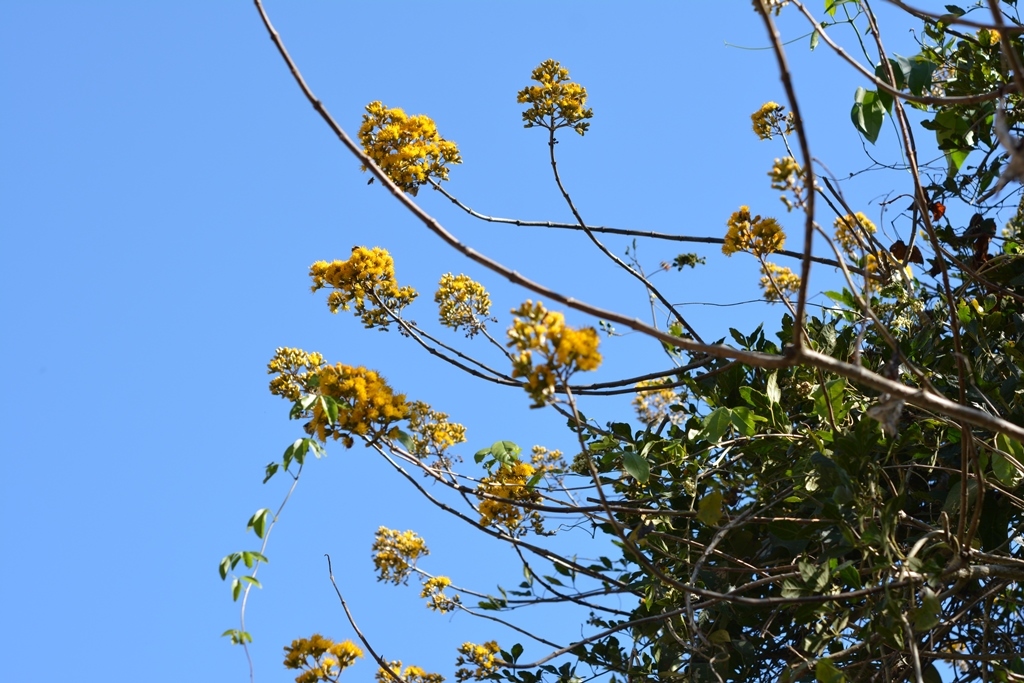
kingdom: Plantae
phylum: Tracheophyta
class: Magnoliopsida
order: Asterales
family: Asteraceae
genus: Sinclairia
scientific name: Sinclairia vagans
